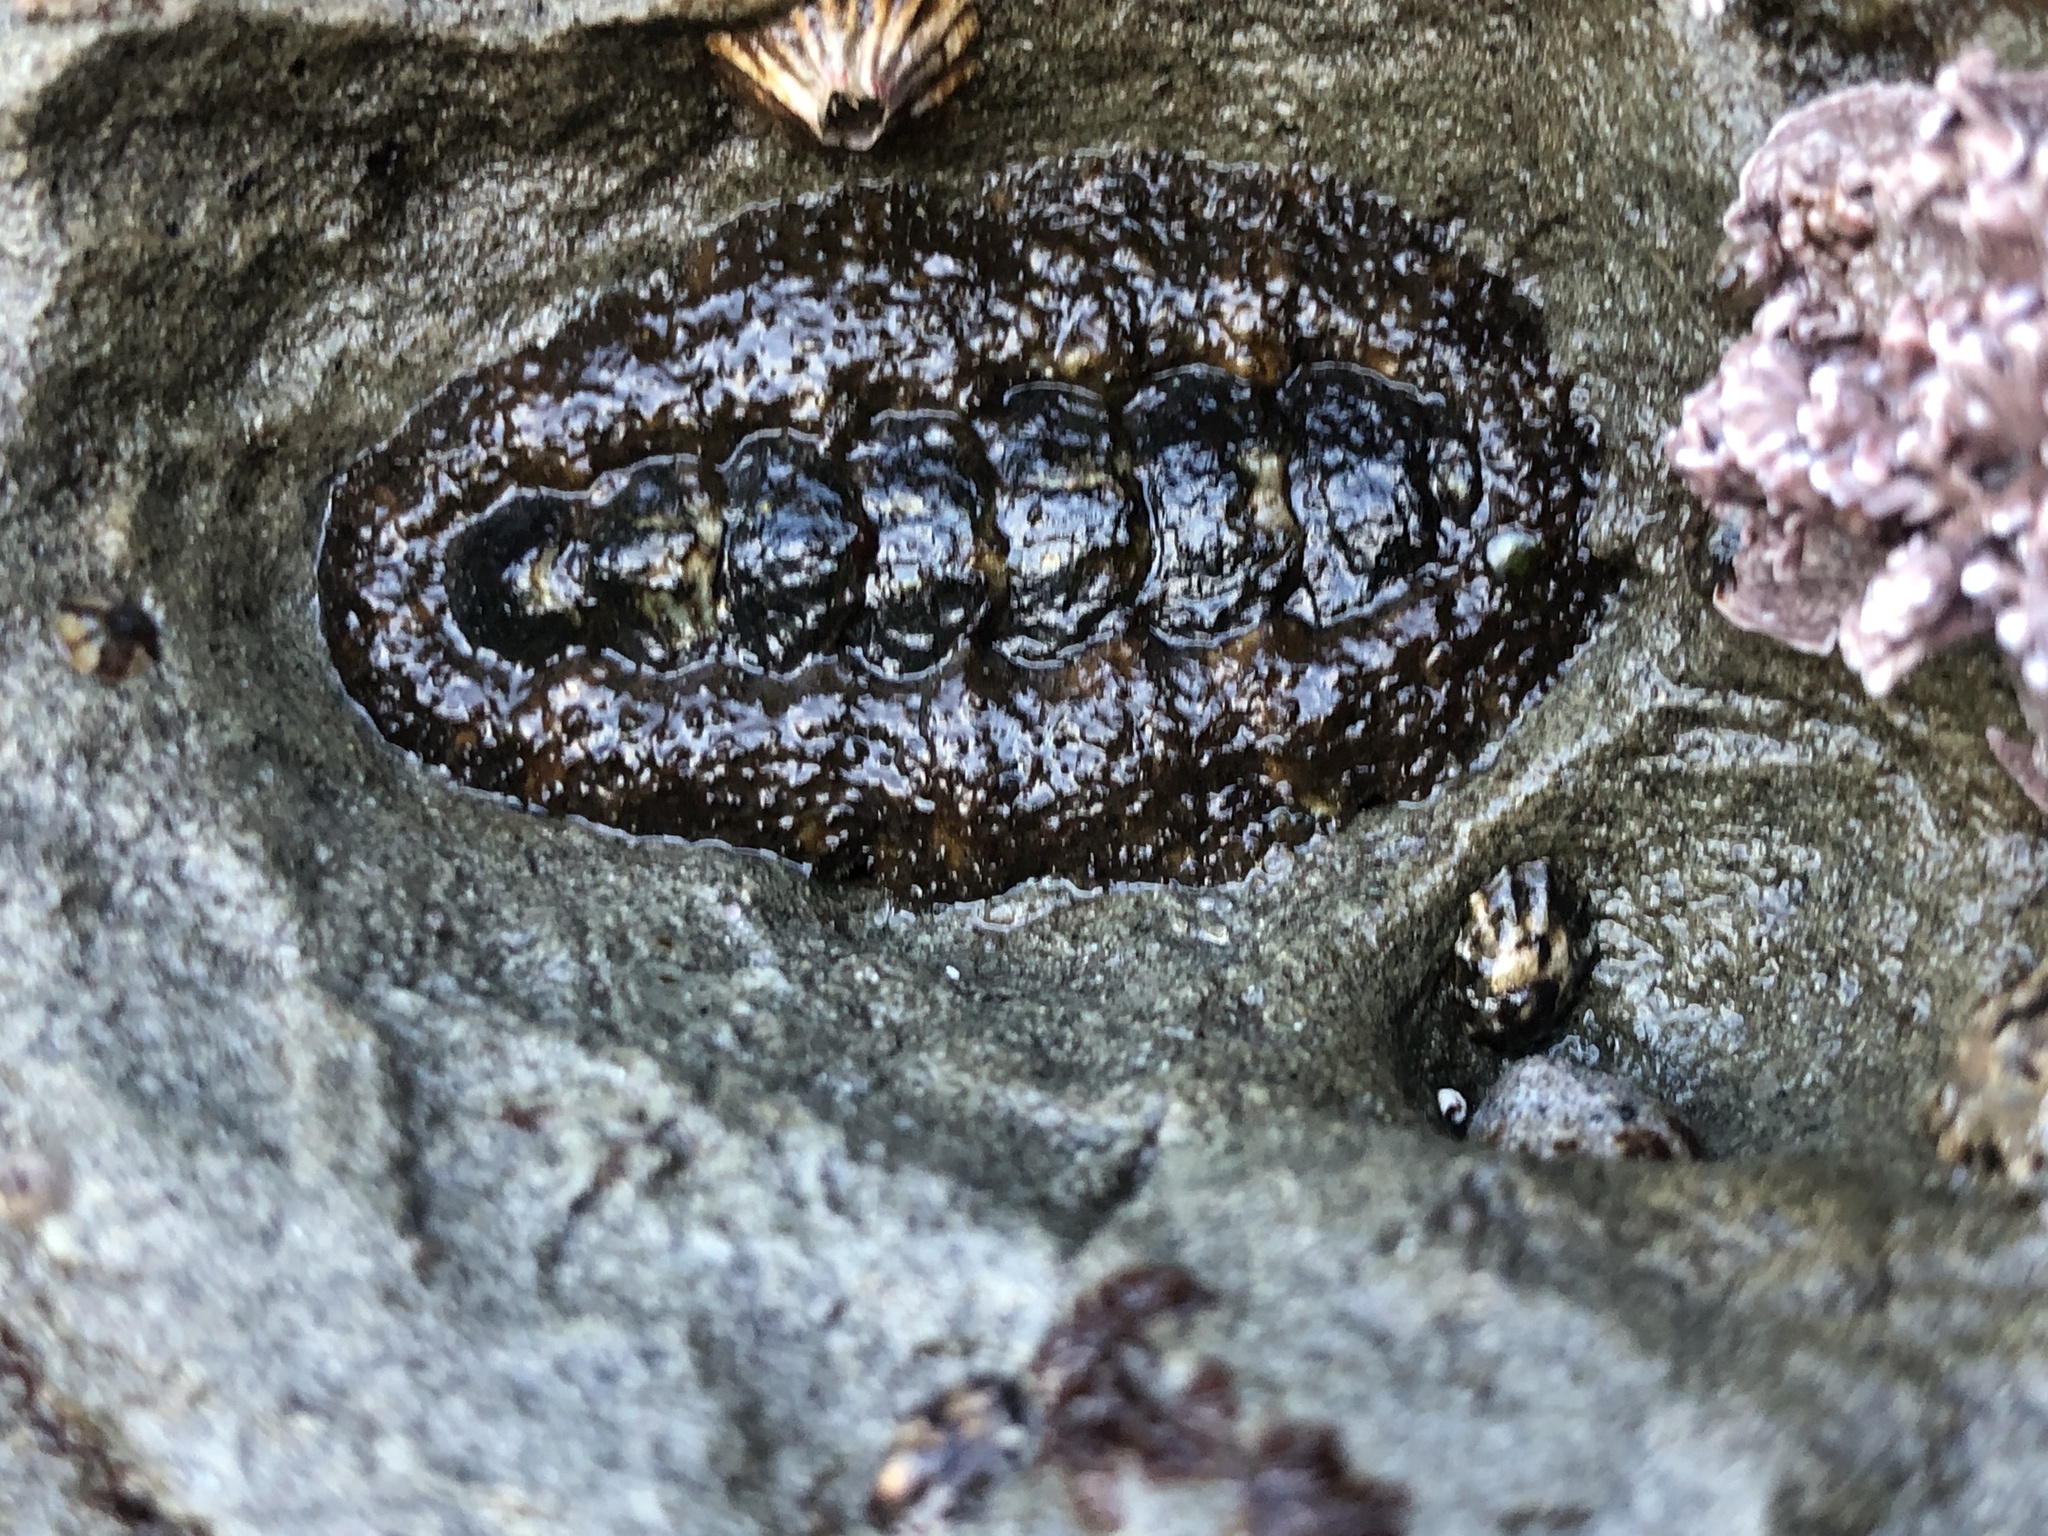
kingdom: Animalia
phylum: Mollusca
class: Polyplacophora
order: Chitonida
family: Tonicellidae
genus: Nuttallina
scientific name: Nuttallina californica
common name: California nuttall chiton
